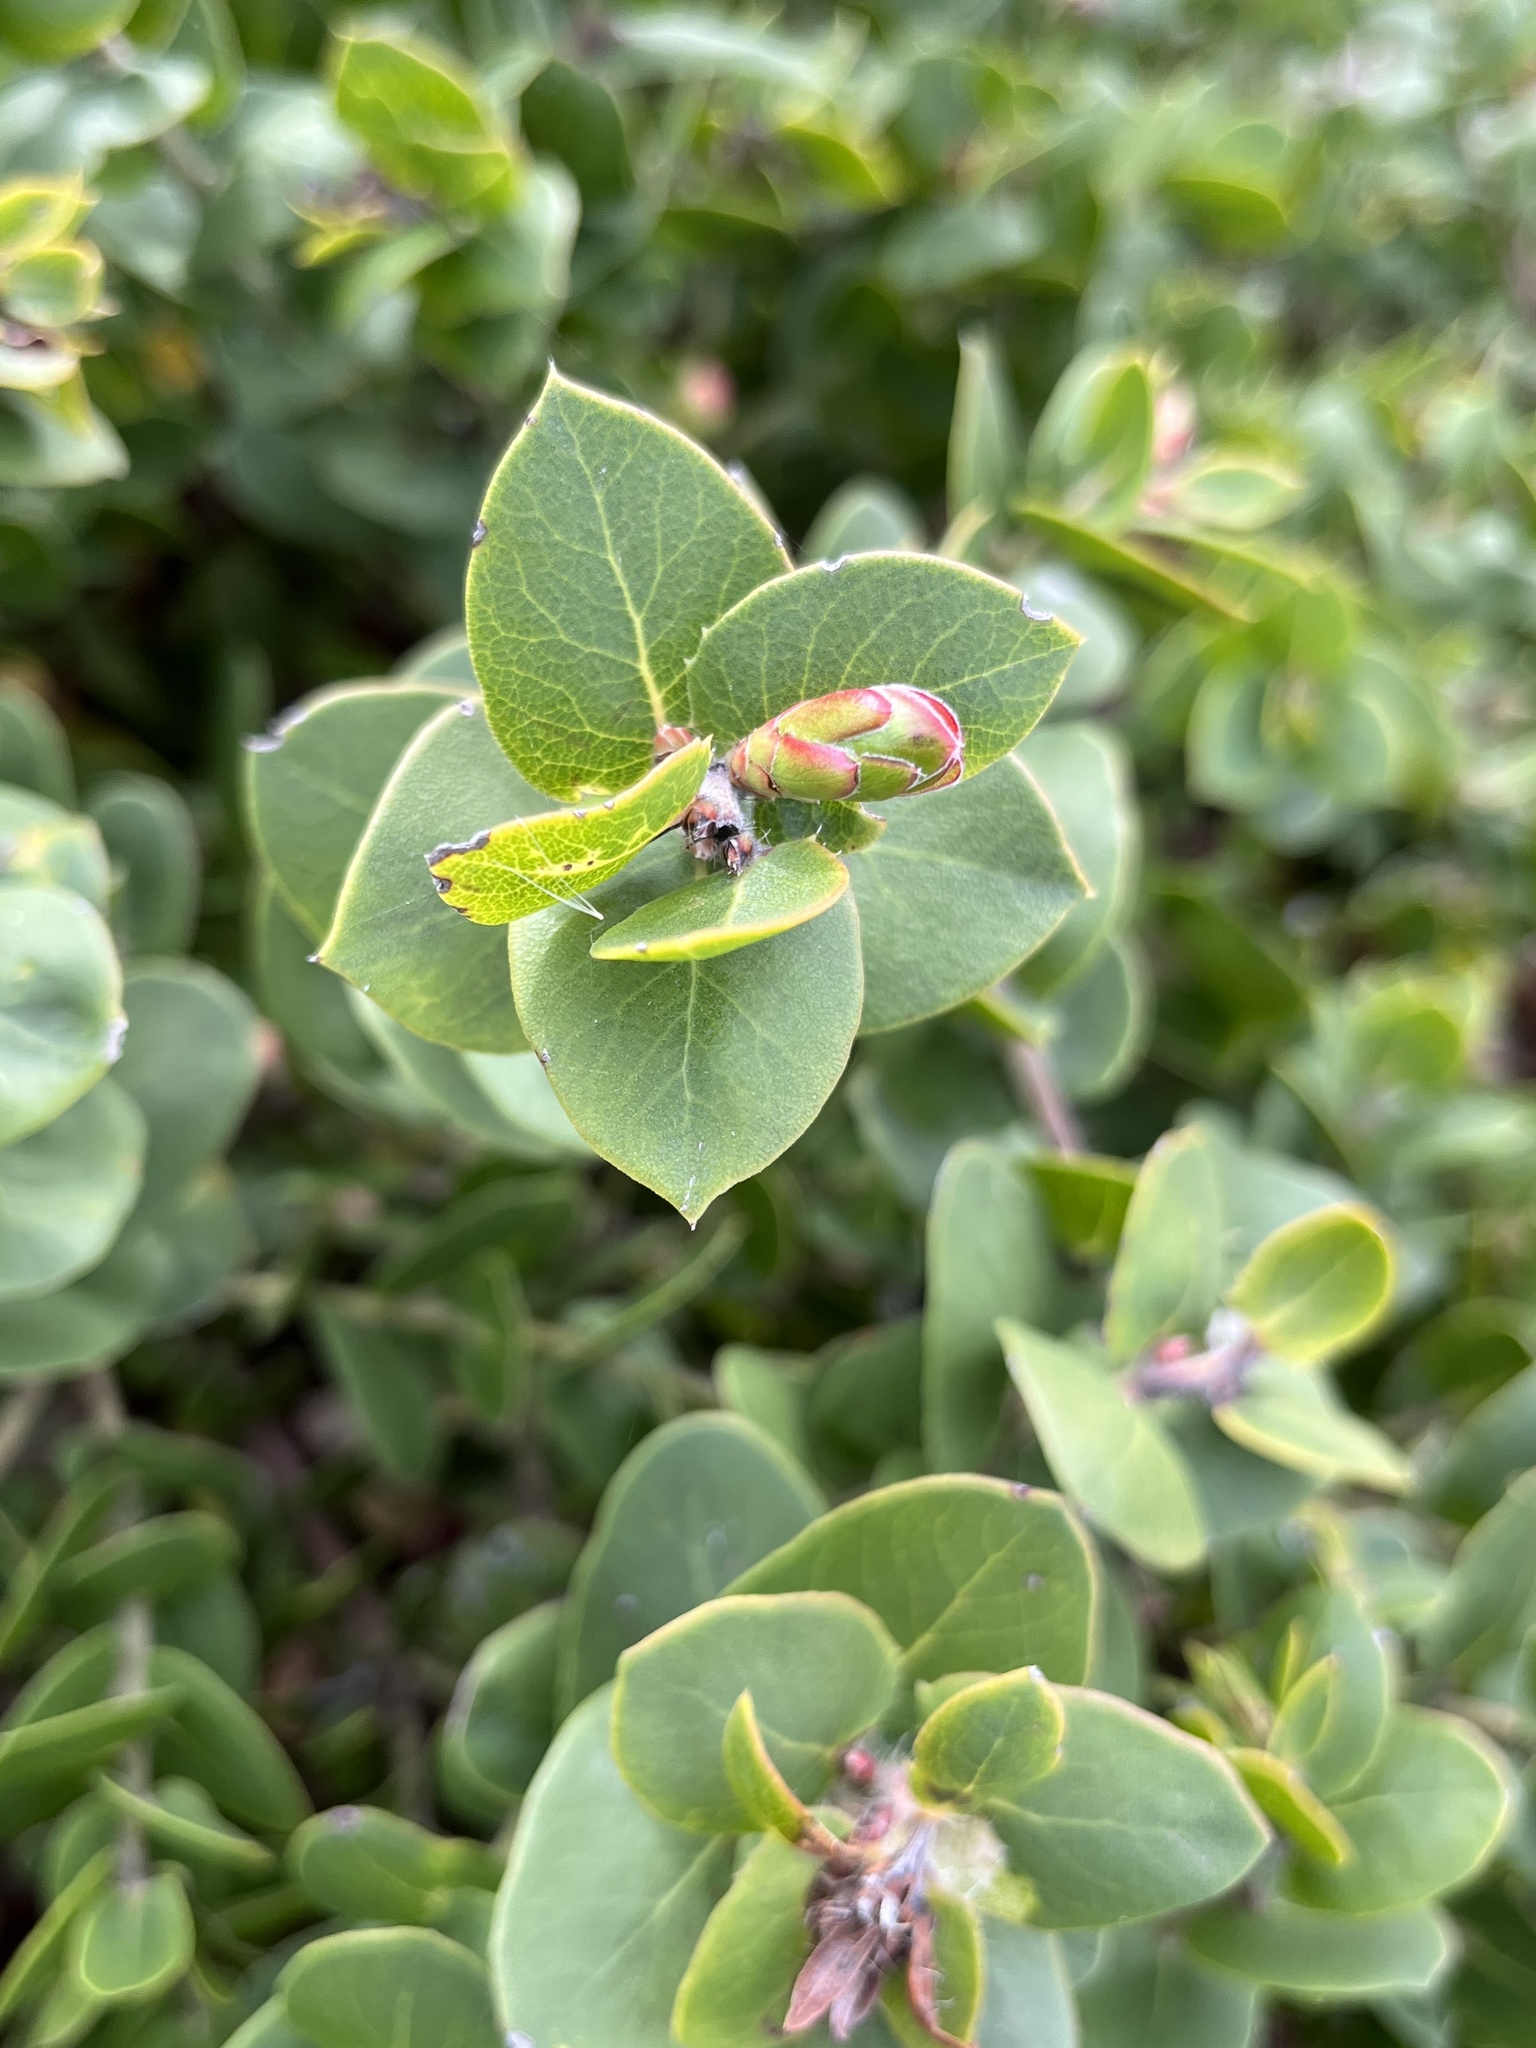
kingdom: Plantae
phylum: Tracheophyta
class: Magnoliopsida
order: Ericales
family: Ericaceae
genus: Arctostaphylos
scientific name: Arctostaphylos pechoensis
